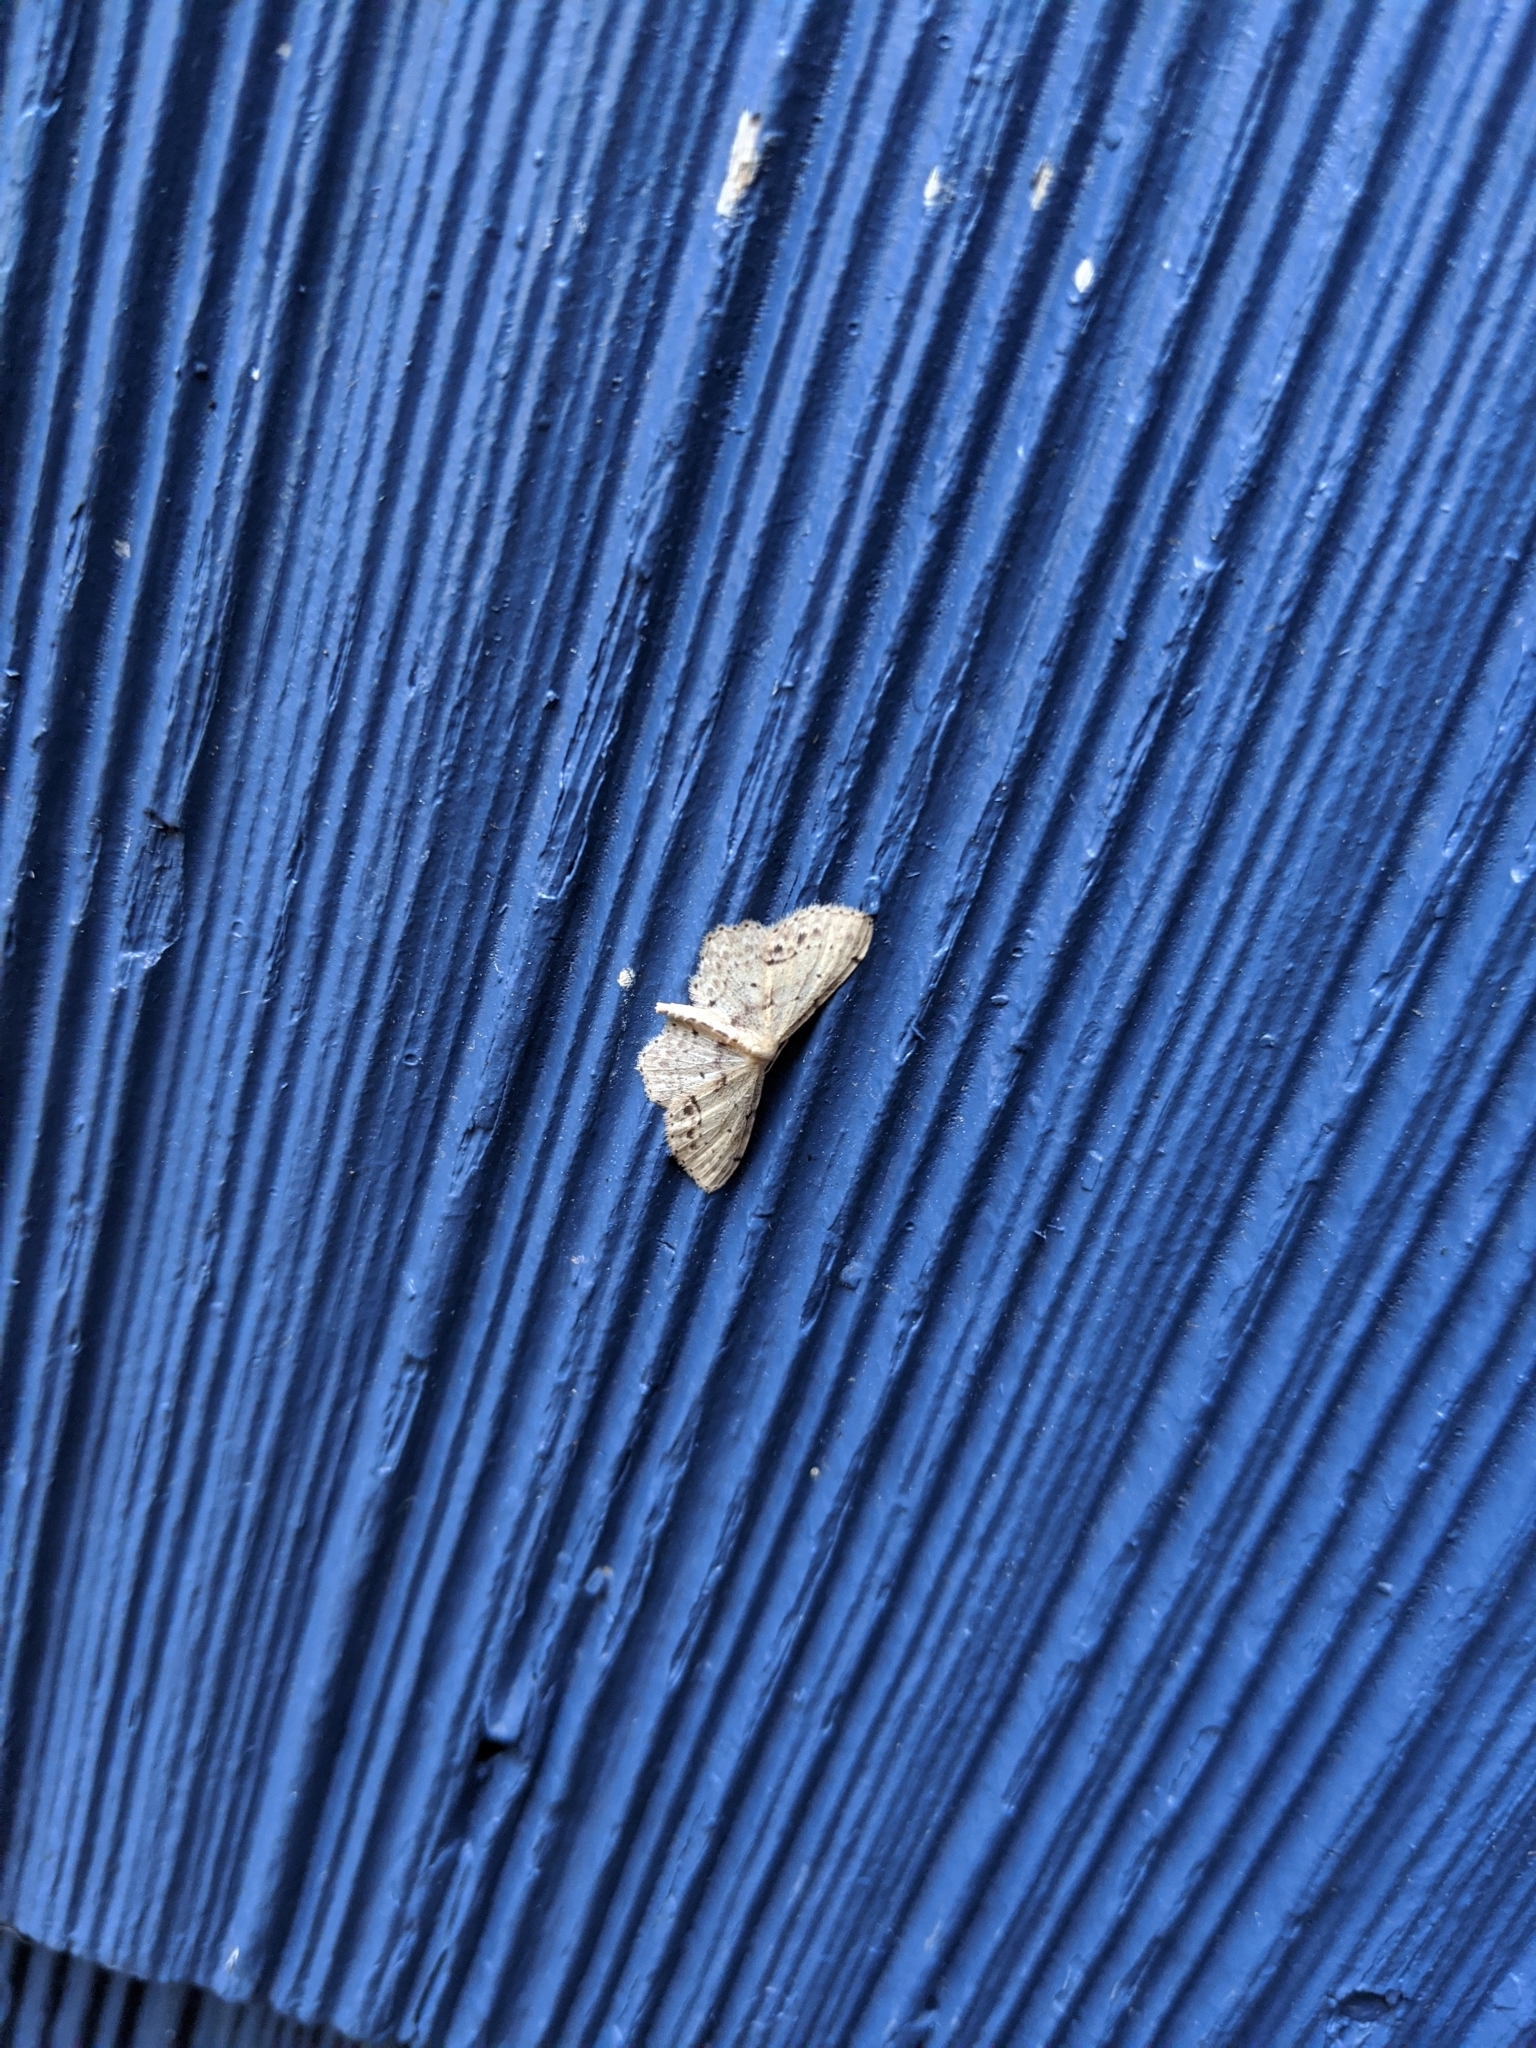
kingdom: Animalia
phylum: Arthropoda
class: Insecta
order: Lepidoptera
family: Geometridae
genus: Idaea
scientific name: Idaea dimidiata
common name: Single-dotted wave
